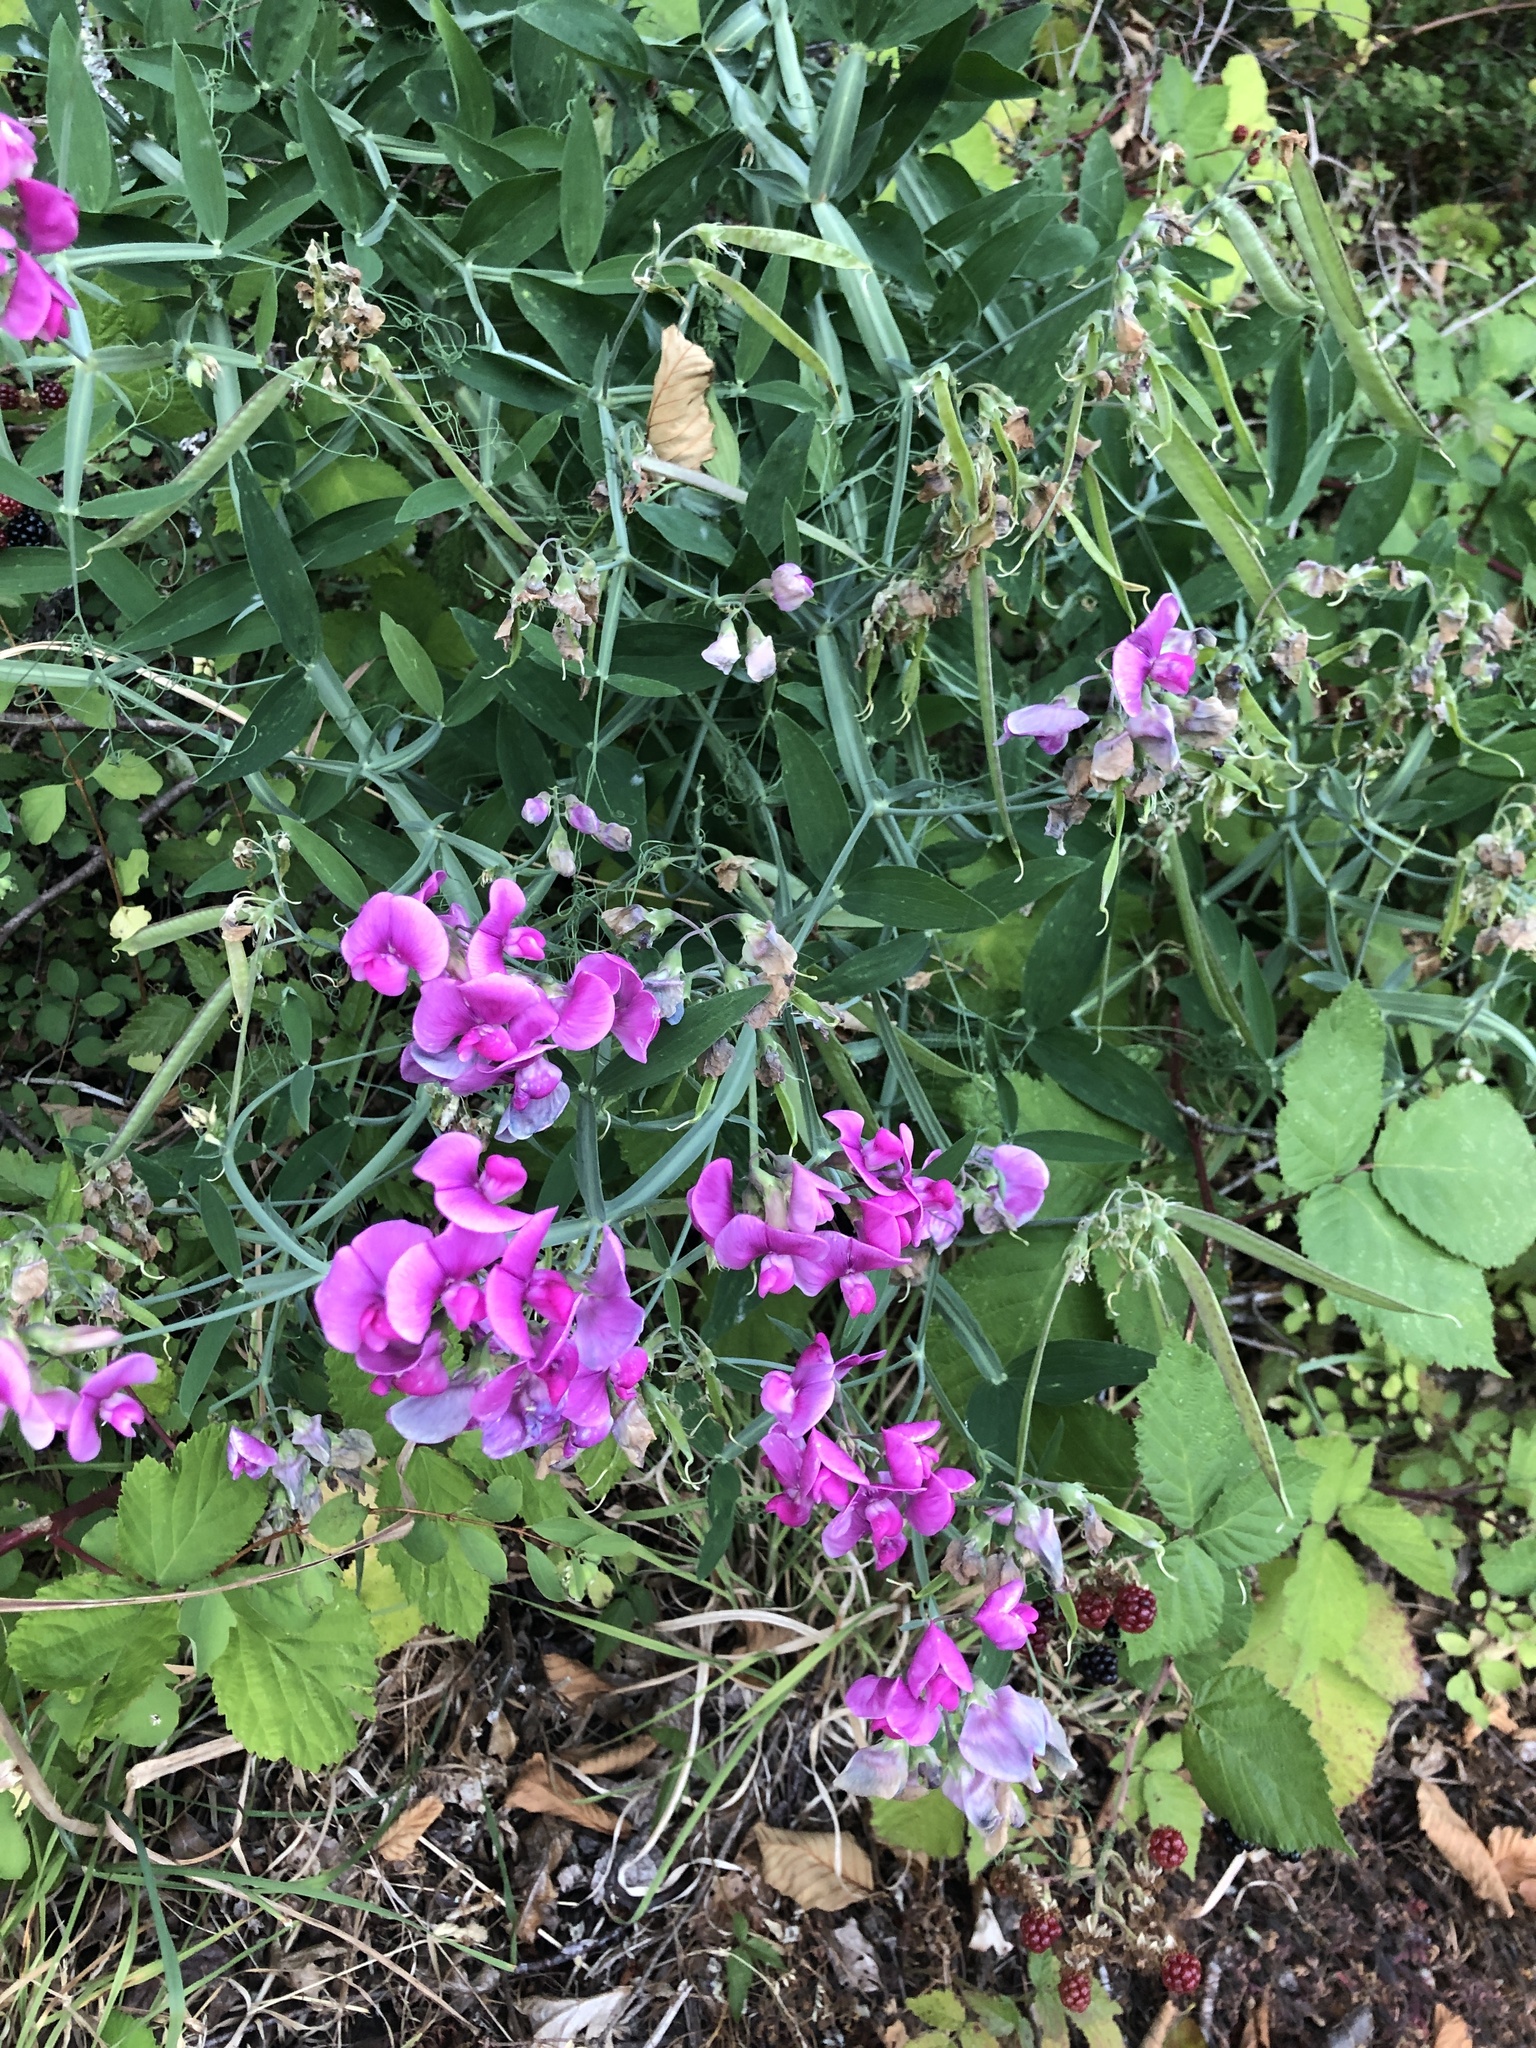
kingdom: Plantae
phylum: Tracheophyta
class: Magnoliopsida
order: Fabales
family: Fabaceae
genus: Lathyrus
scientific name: Lathyrus latifolius
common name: Perennial pea
